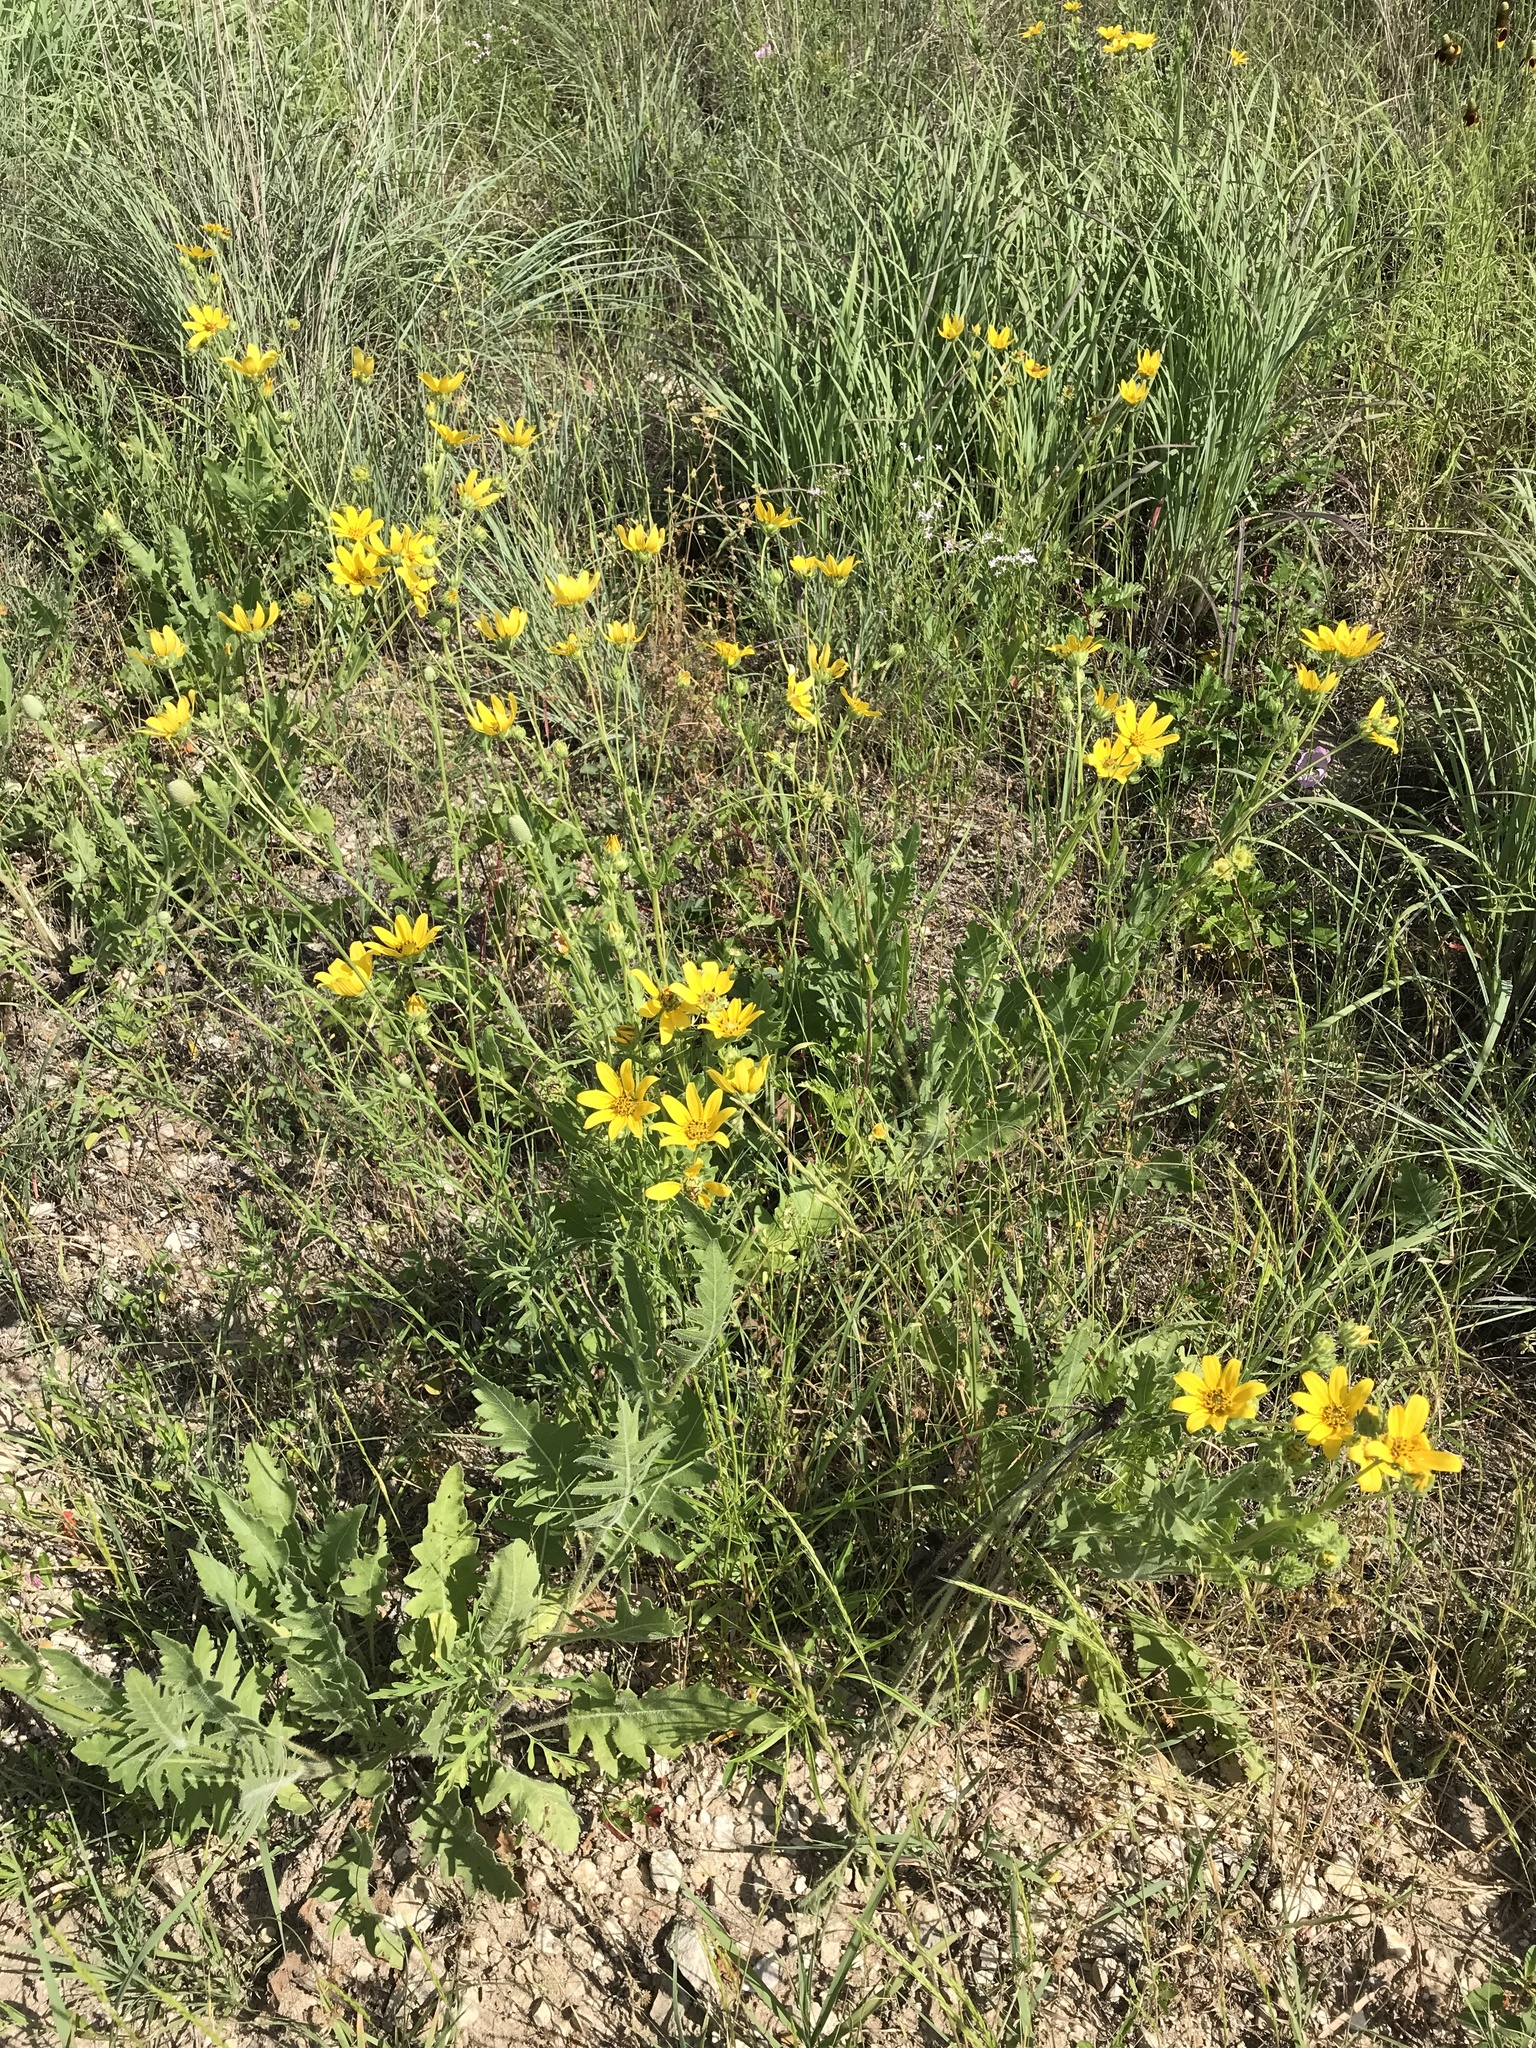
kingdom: Plantae
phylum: Tracheophyta
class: Magnoliopsida
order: Asterales
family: Asteraceae
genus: Engelmannia
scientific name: Engelmannia peristenia
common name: Engelmann's daisy
